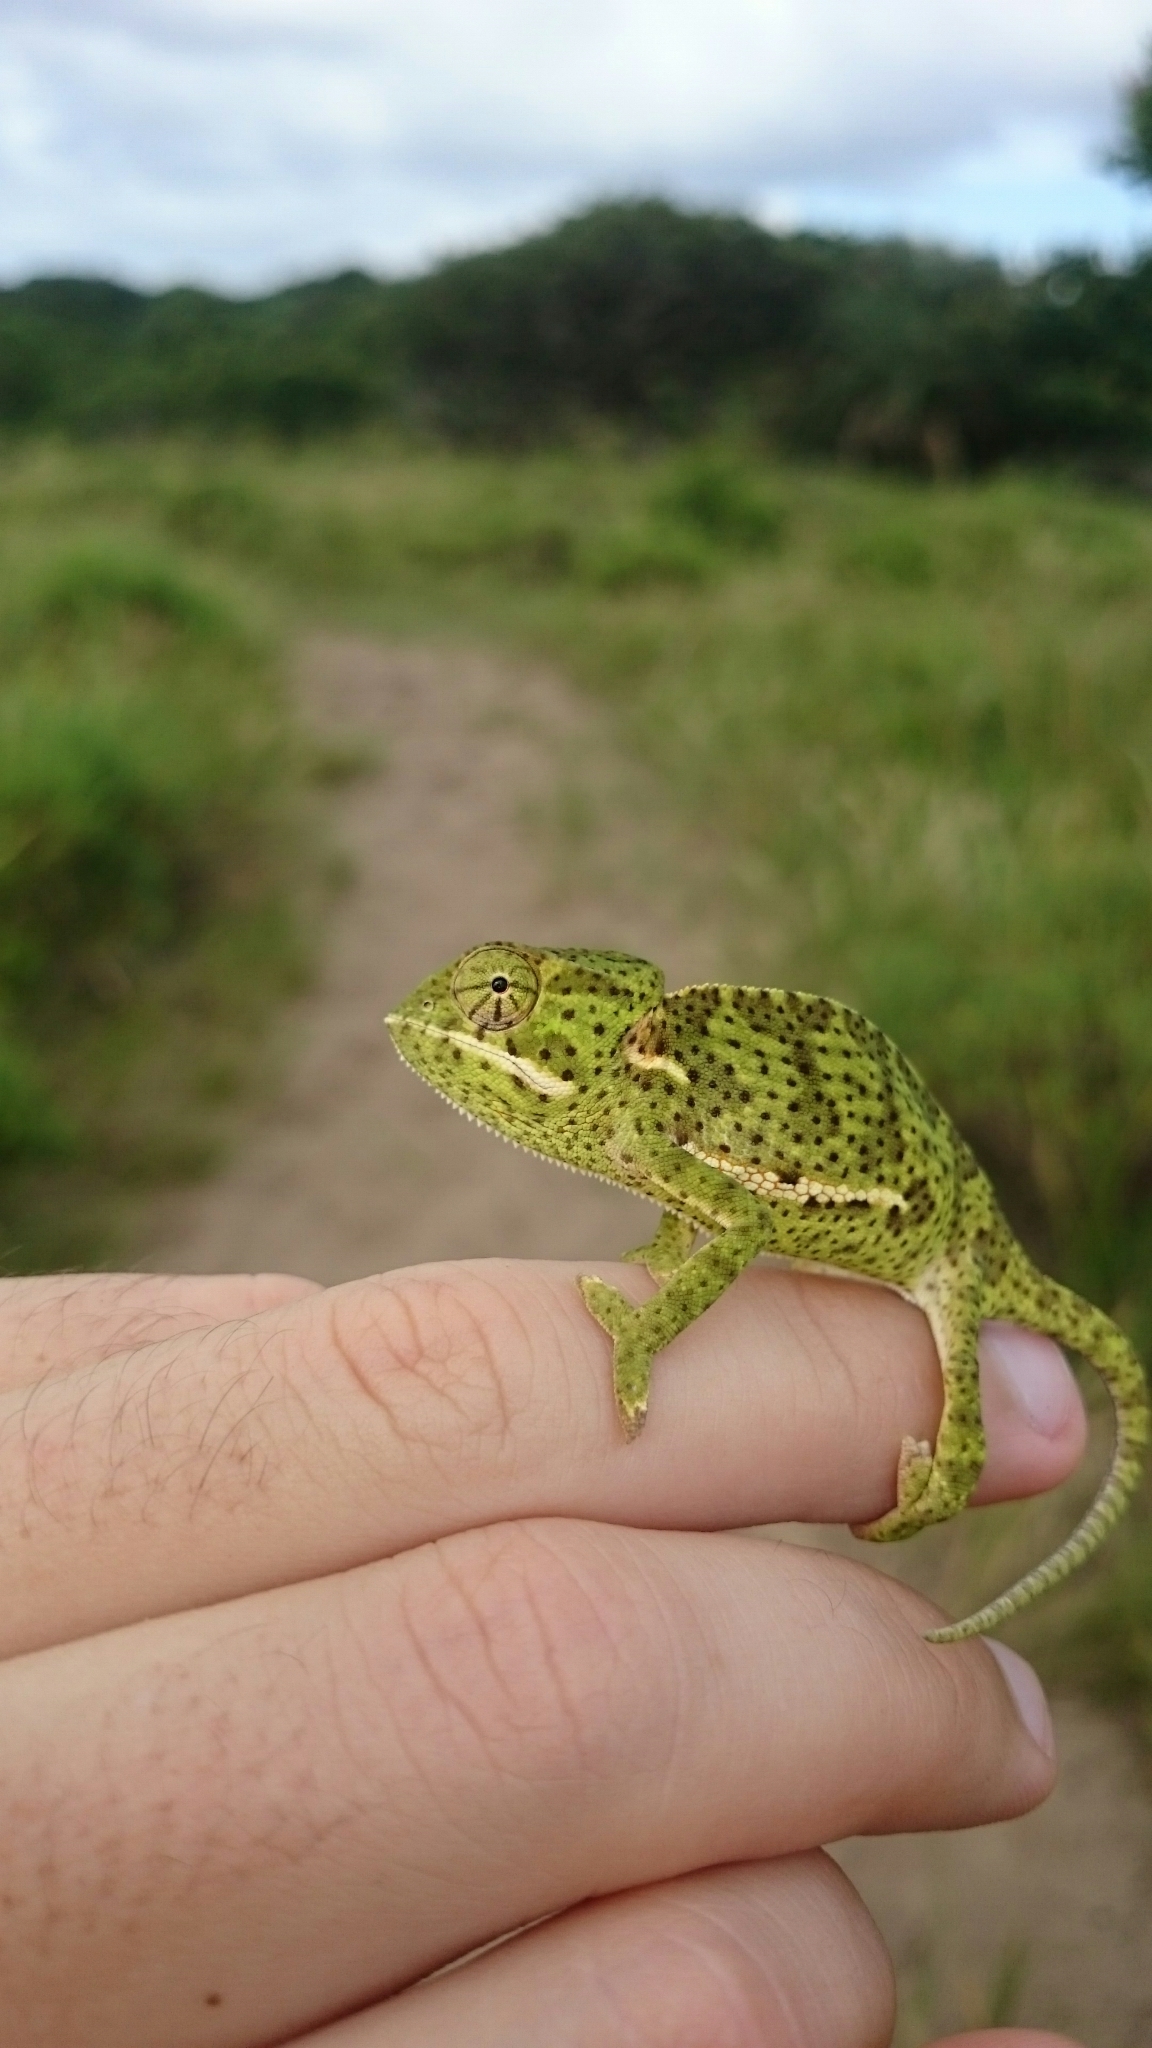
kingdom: Animalia
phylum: Chordata
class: Squamata
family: Chamaeleonidae
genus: Chamaeleo
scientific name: Chamaeleo dilepis
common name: Flapneck chameleon
